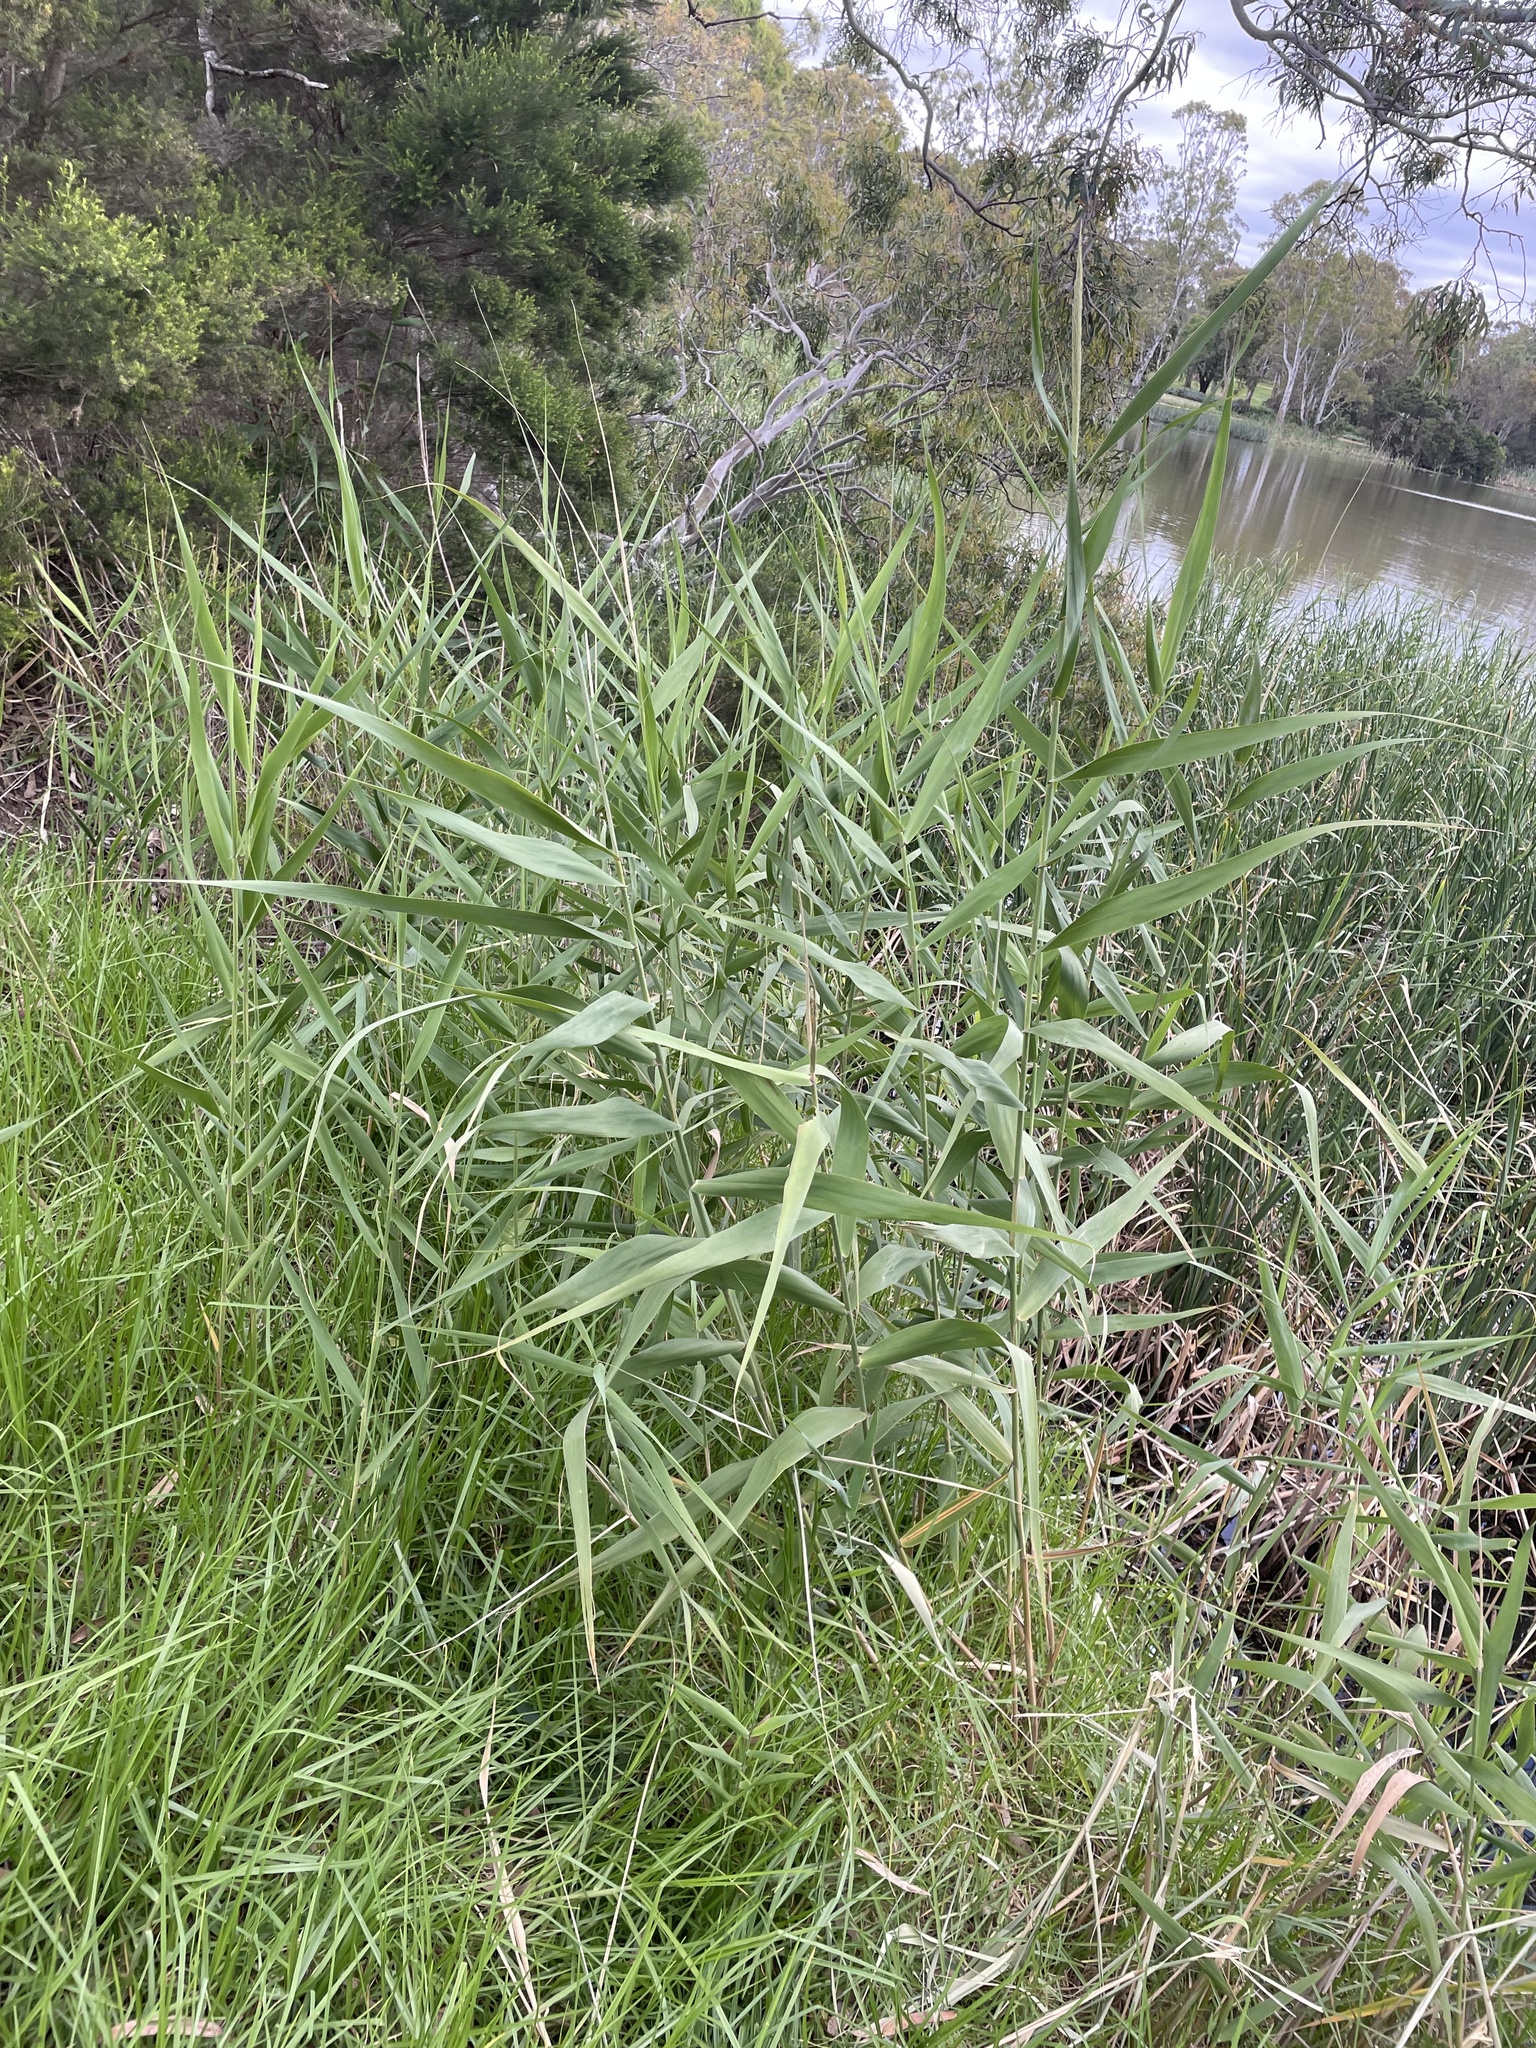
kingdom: Plantae
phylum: Tracheophyta
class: Liliopsida
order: Poales
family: Poaceae
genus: Phragmites
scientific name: Phragmites australis
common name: Common reed
